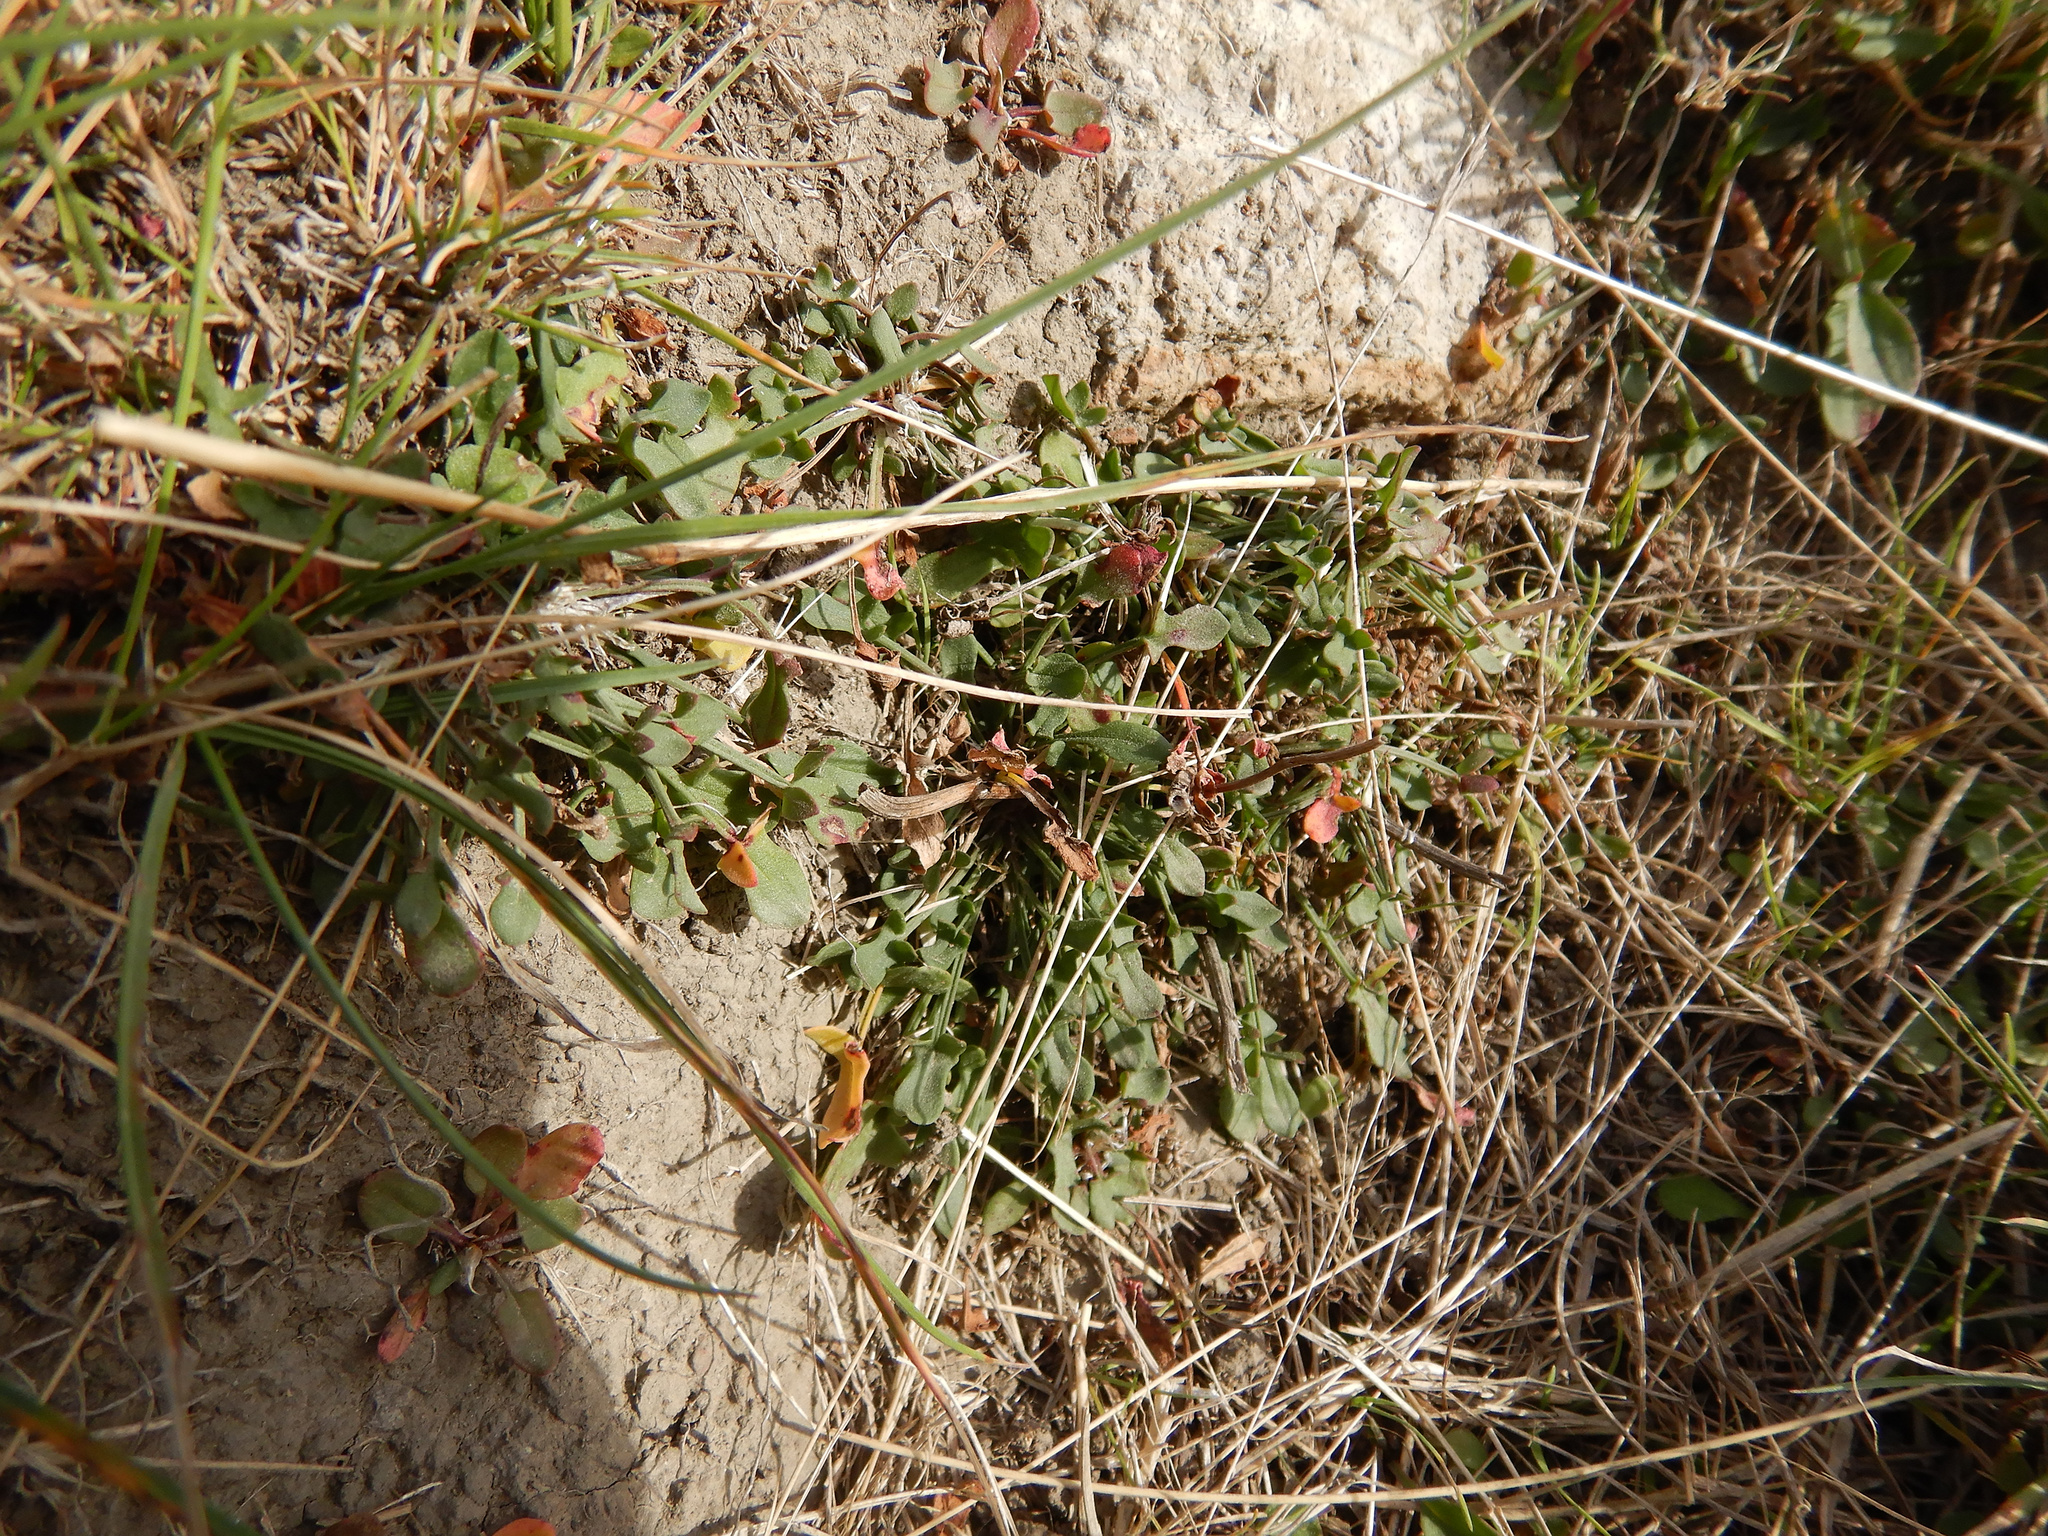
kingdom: Plantae
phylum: Tracheophyta
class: Magnoliopsida
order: Caryophyllales
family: Polygonaceae
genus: Rumex
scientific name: Rumex acetosella
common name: Common sheep sorrel
